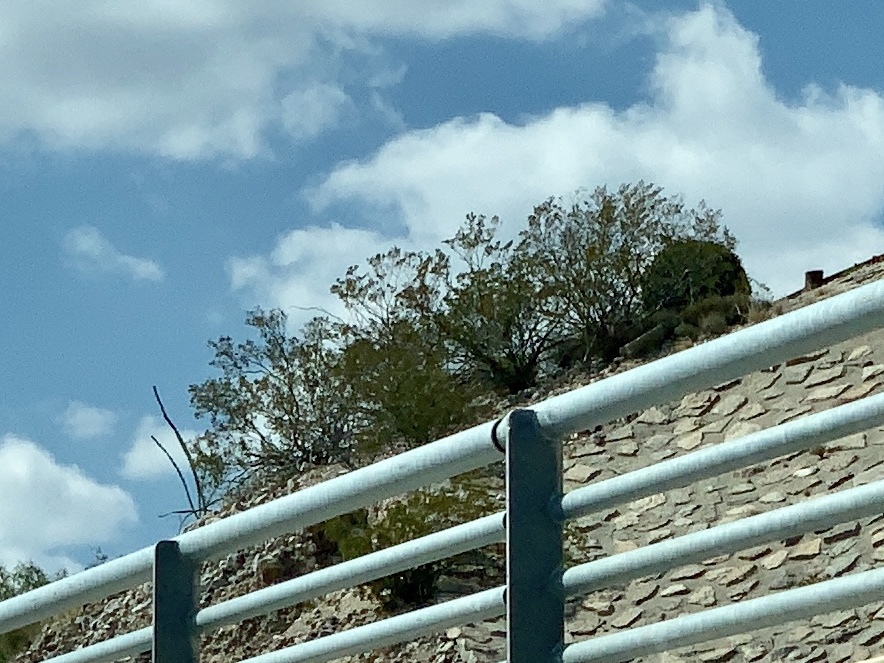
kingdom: Plantae
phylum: Tracheophyta
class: Magnoliopsida
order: Zygophyllales
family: Zygophyllaceae
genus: Larrea
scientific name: Larrea tridentata
